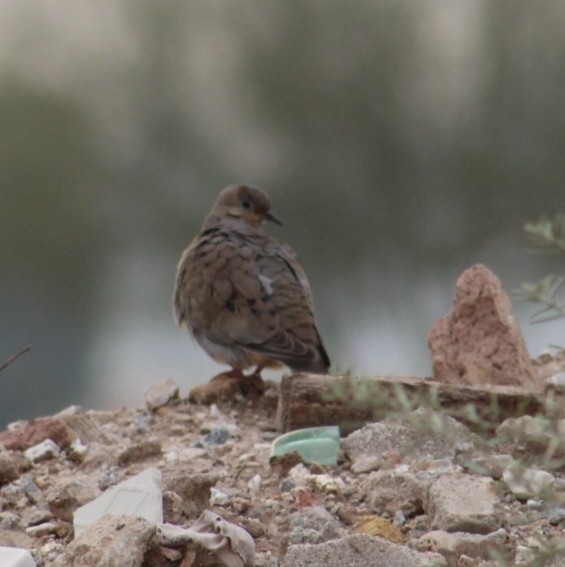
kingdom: Animalia
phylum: Chordata
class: Aves
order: Columbiformes
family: Columbidae
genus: Zenaida
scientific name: Zenaida macroura
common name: Mourning dove
